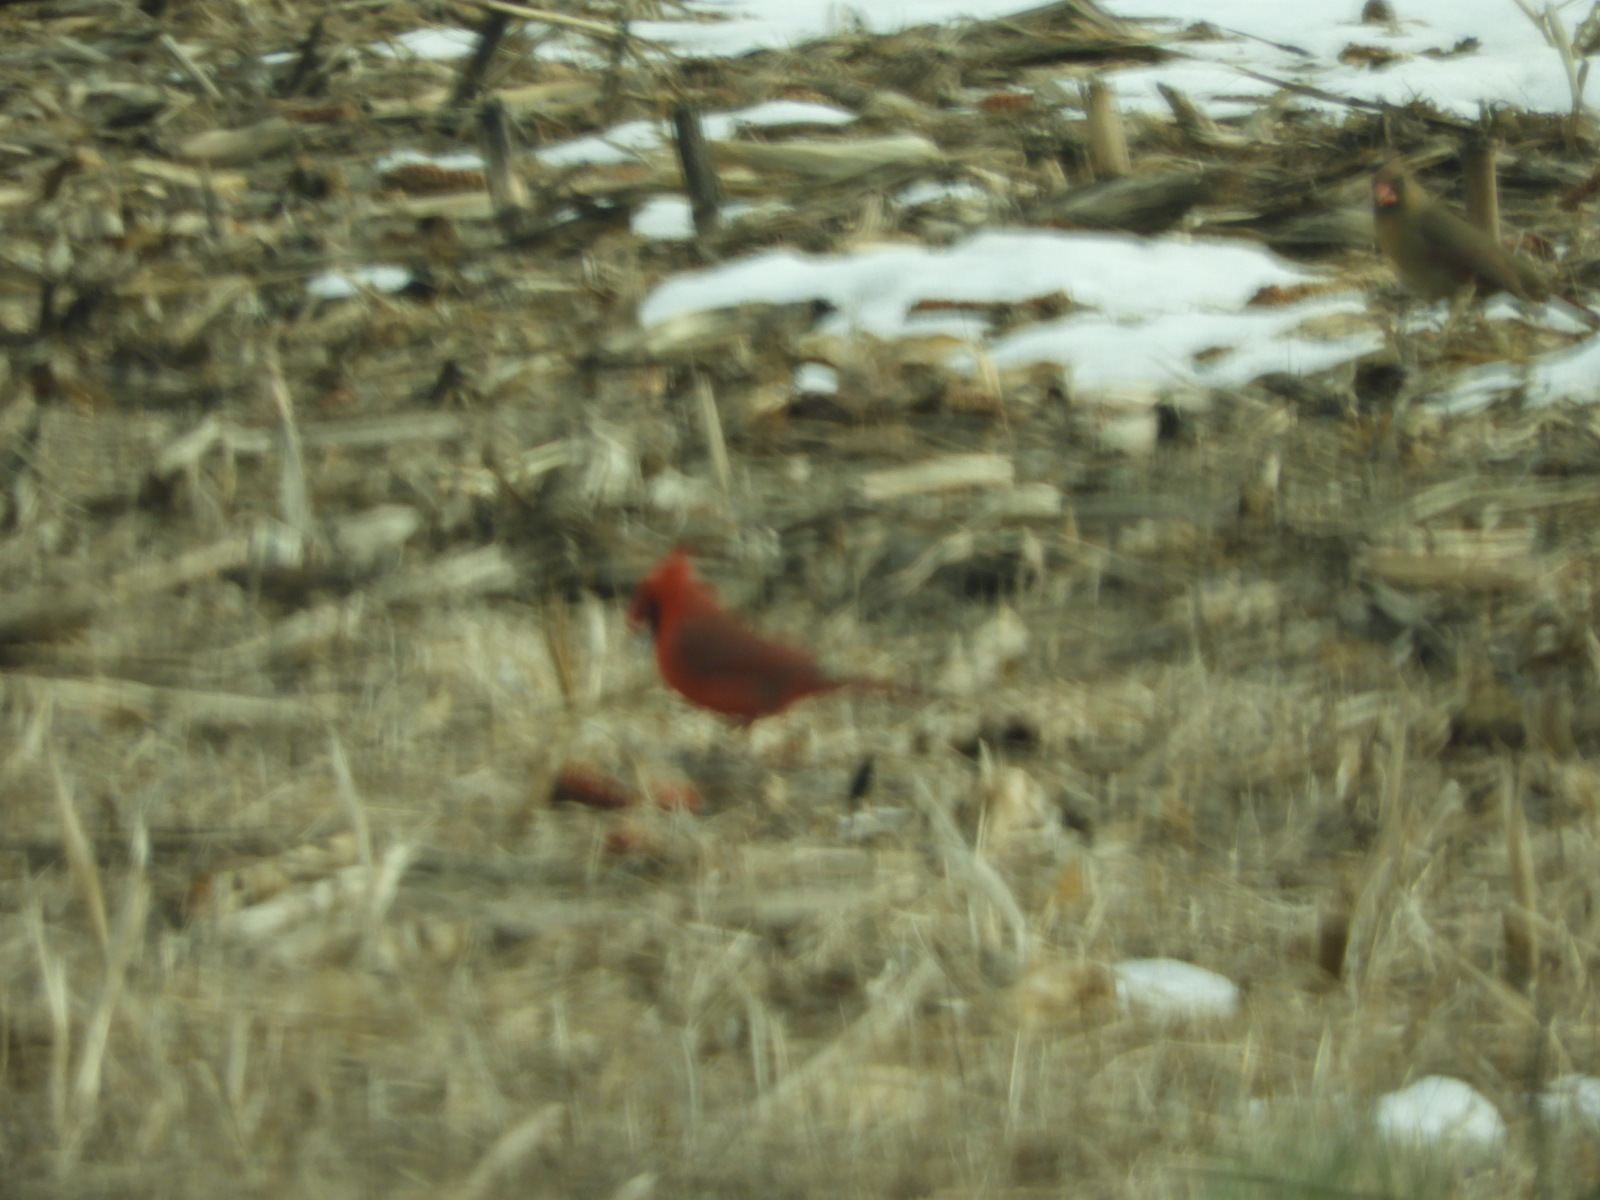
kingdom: Animalia
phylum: Chordata
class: Aves
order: Passeriformes
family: Cardinalidae
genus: Cardinalis
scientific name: Cardinalis cardinalis
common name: Northern cardinal
